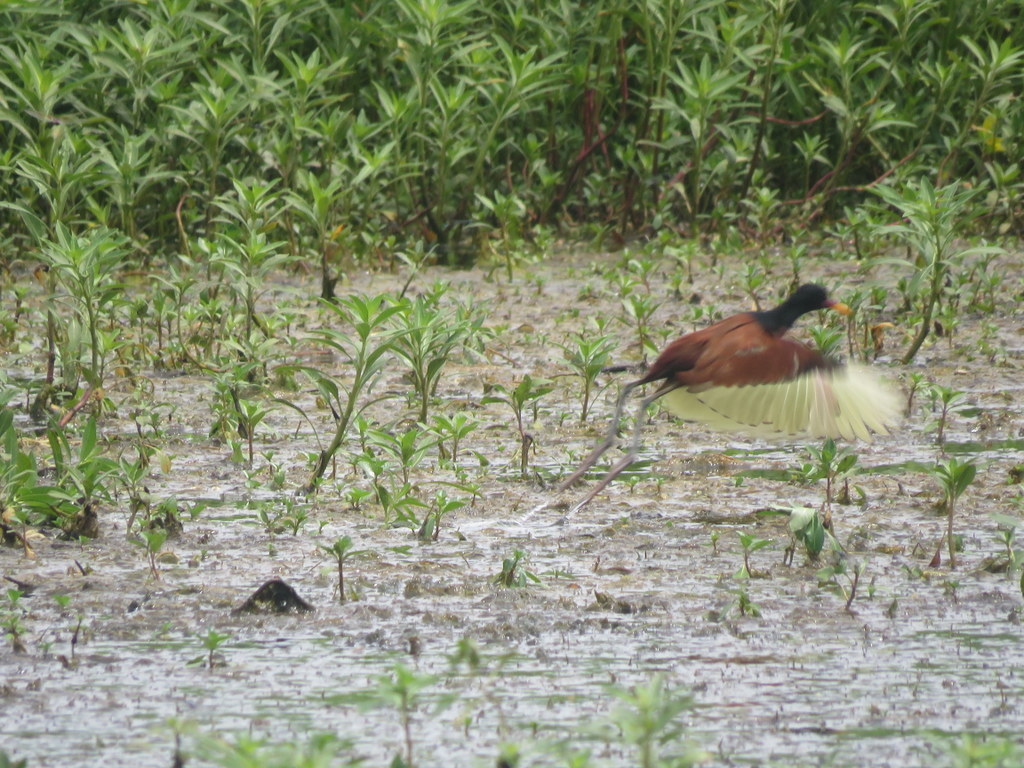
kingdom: Animalia
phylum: Chordata
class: Aves
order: Charadriiformes
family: Jacanidae
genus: Jacana
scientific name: Jacana jacana
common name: Wattled jacana
